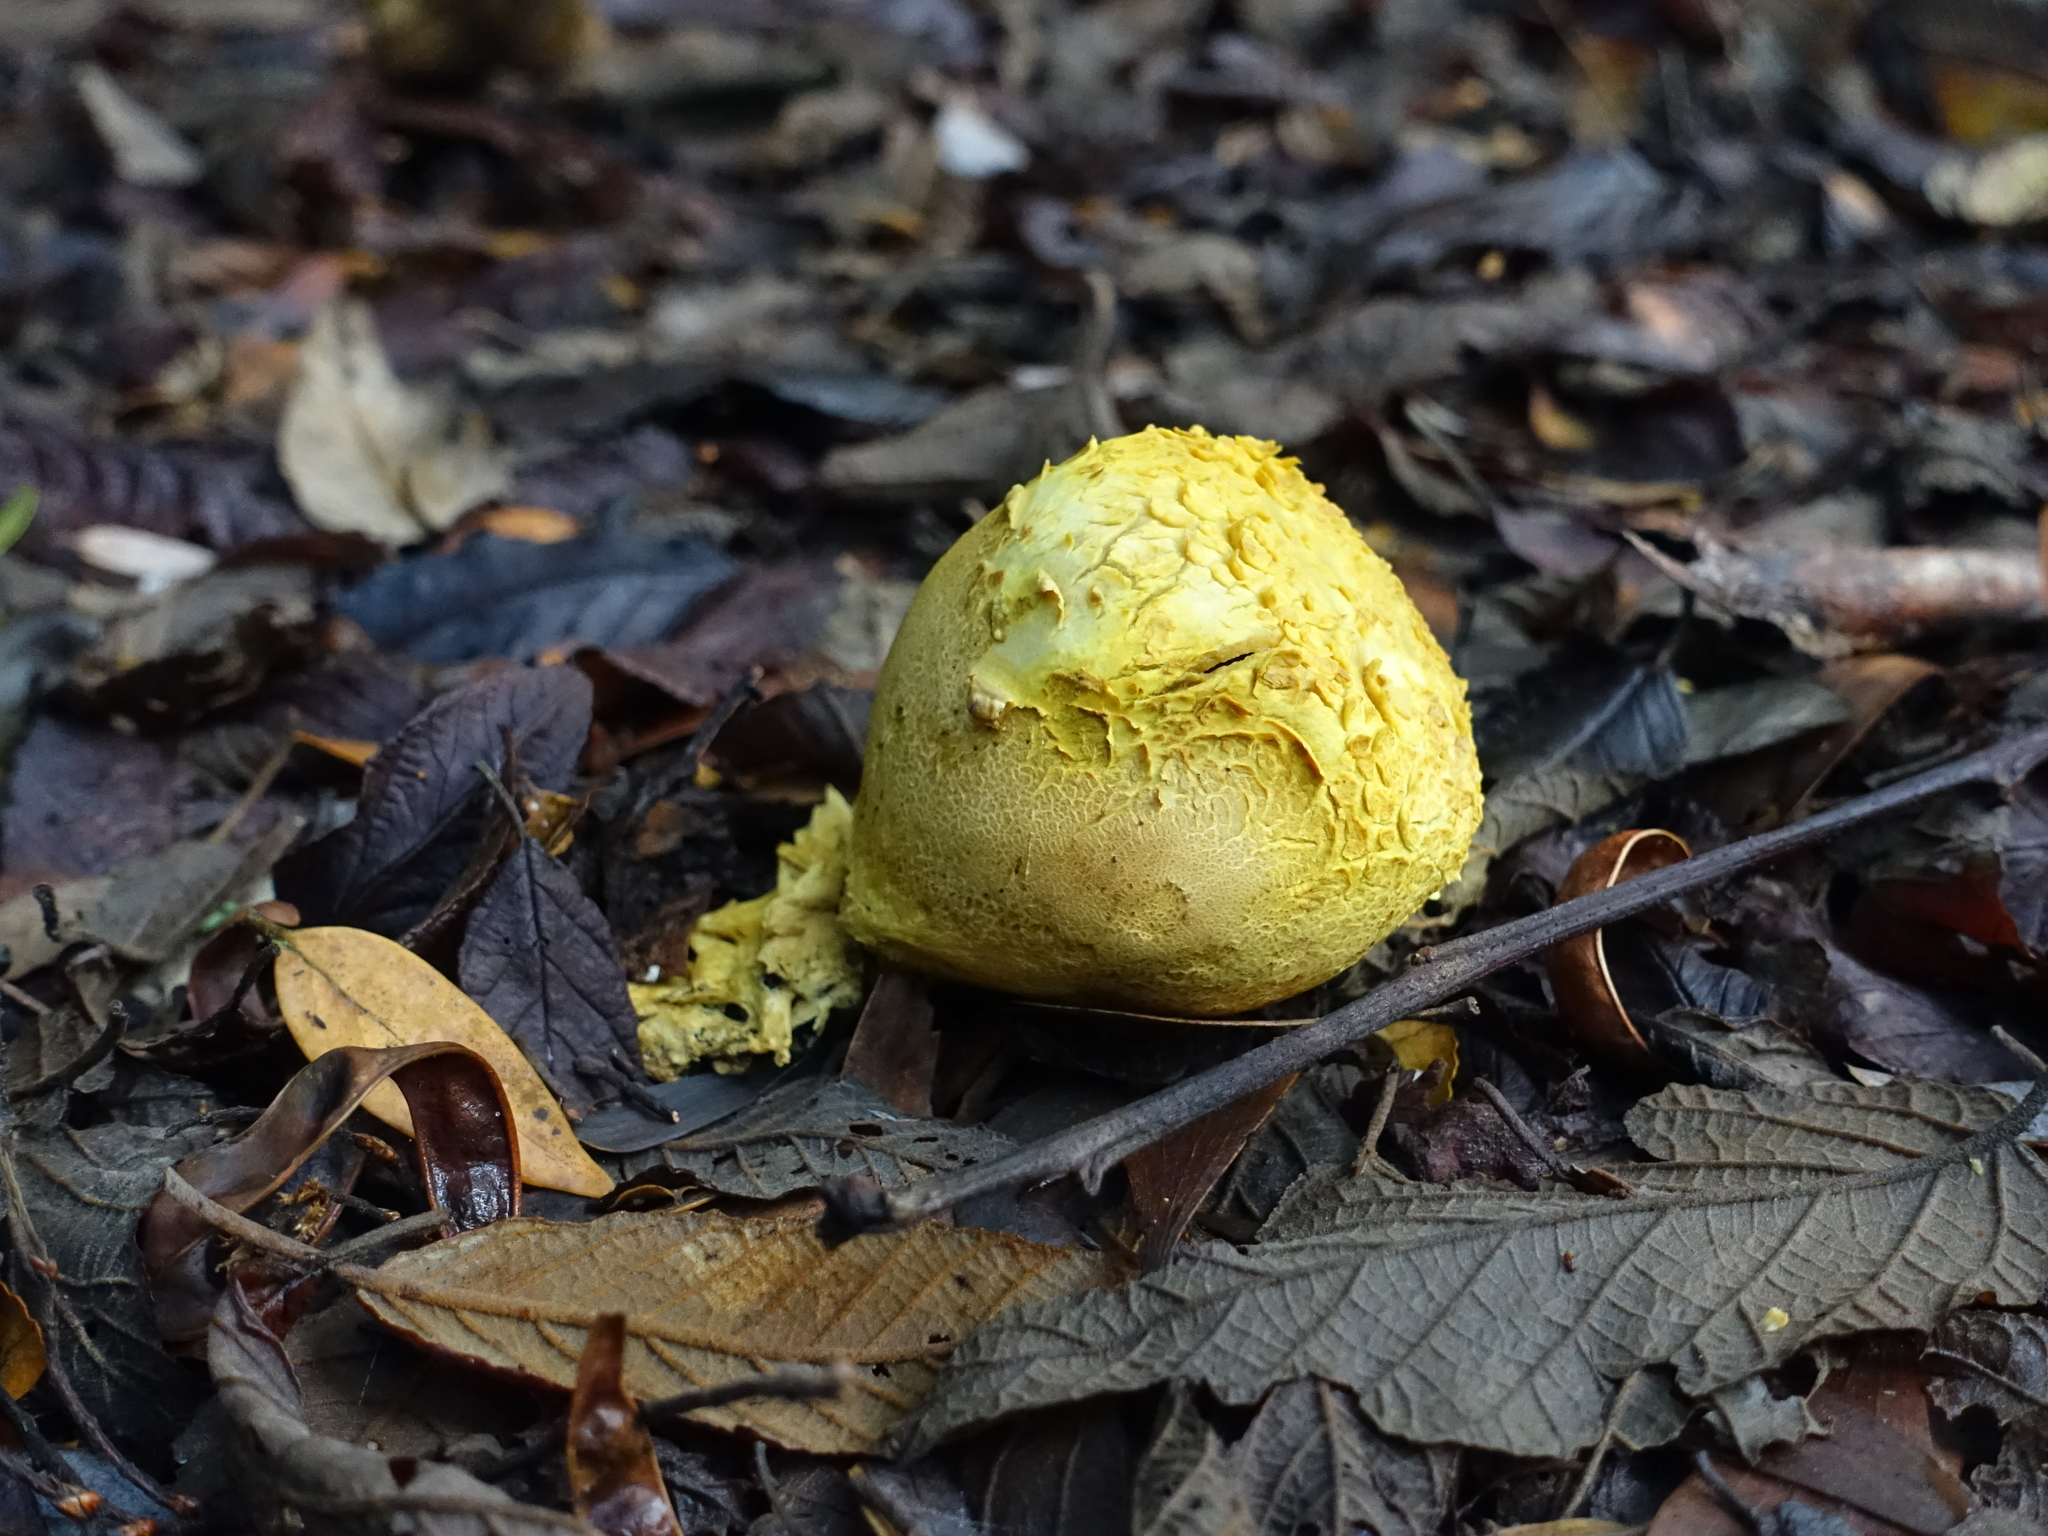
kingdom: Fungi
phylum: Basidiomycota
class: Agaricomycetes
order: Boletales
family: Sclerodermataceae
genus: Scleroderma
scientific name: Scleroderma cepa
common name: Onion earthball
